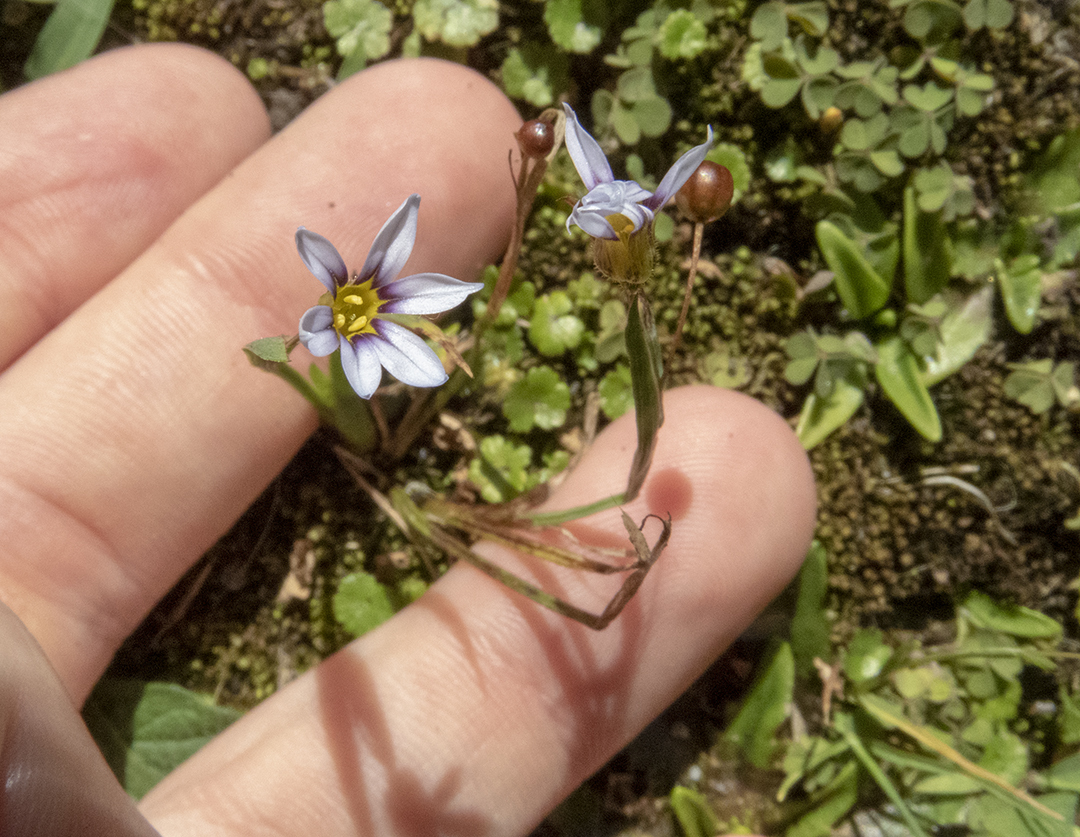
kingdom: Plantae
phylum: Tracheophyta
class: Liliopsida
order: Asparagales
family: Iridaceae
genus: Sisyrinchium
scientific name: Sisyrinchium micranthum
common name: Bermuda pigroot
